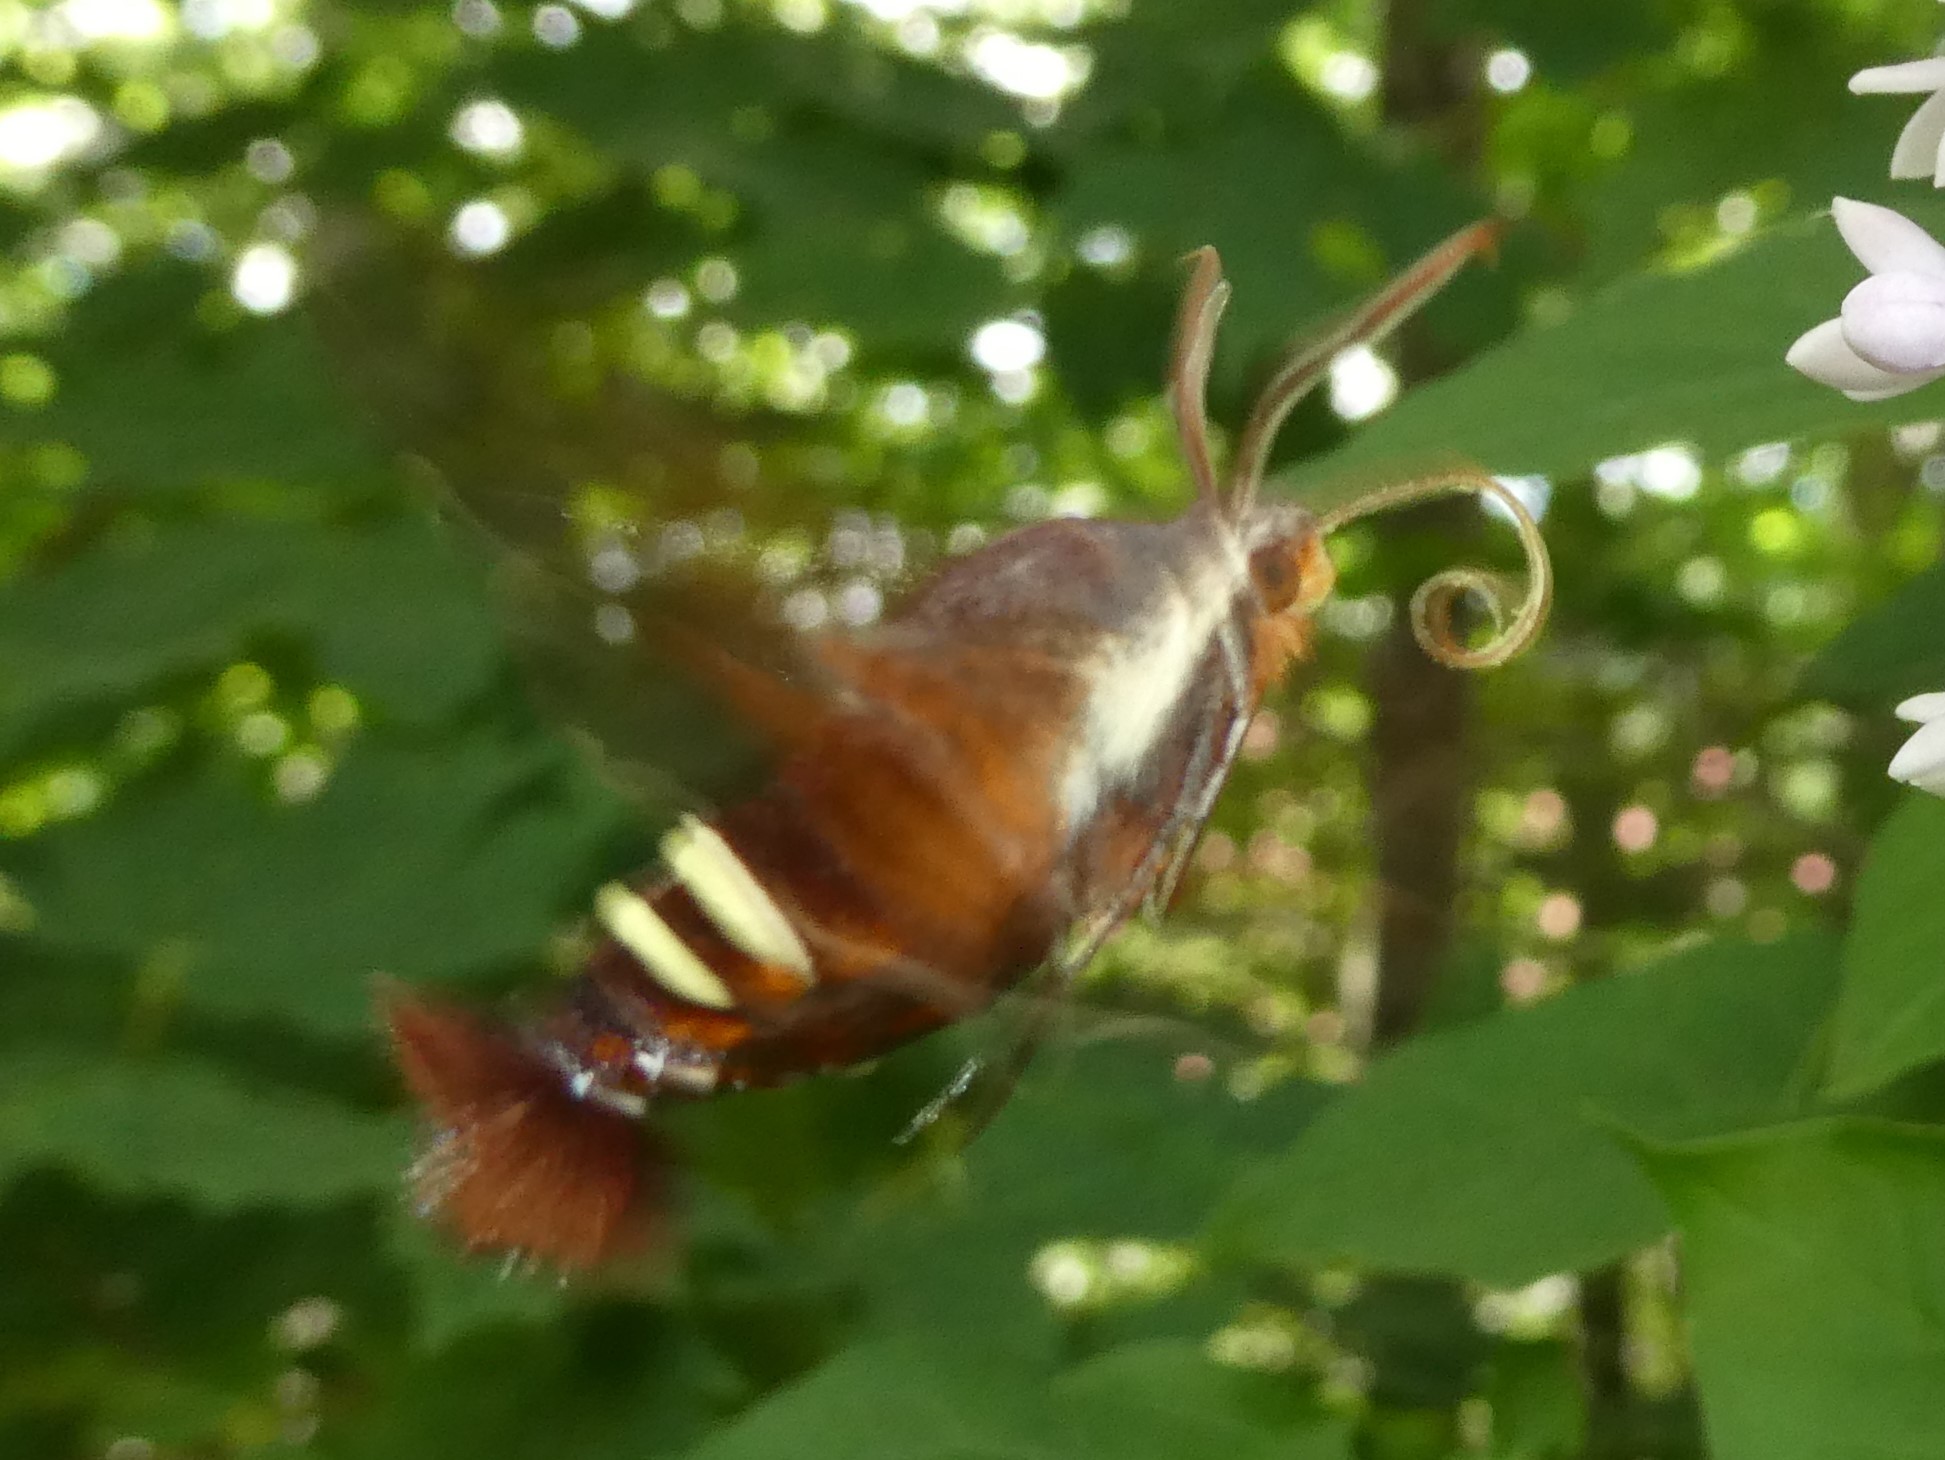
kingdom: Animalia
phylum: Arthropoda
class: Insecta
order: Lepidoptera
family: Sphingidae
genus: Amphion
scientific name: Amphion floridensis
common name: Nessus sphinx
